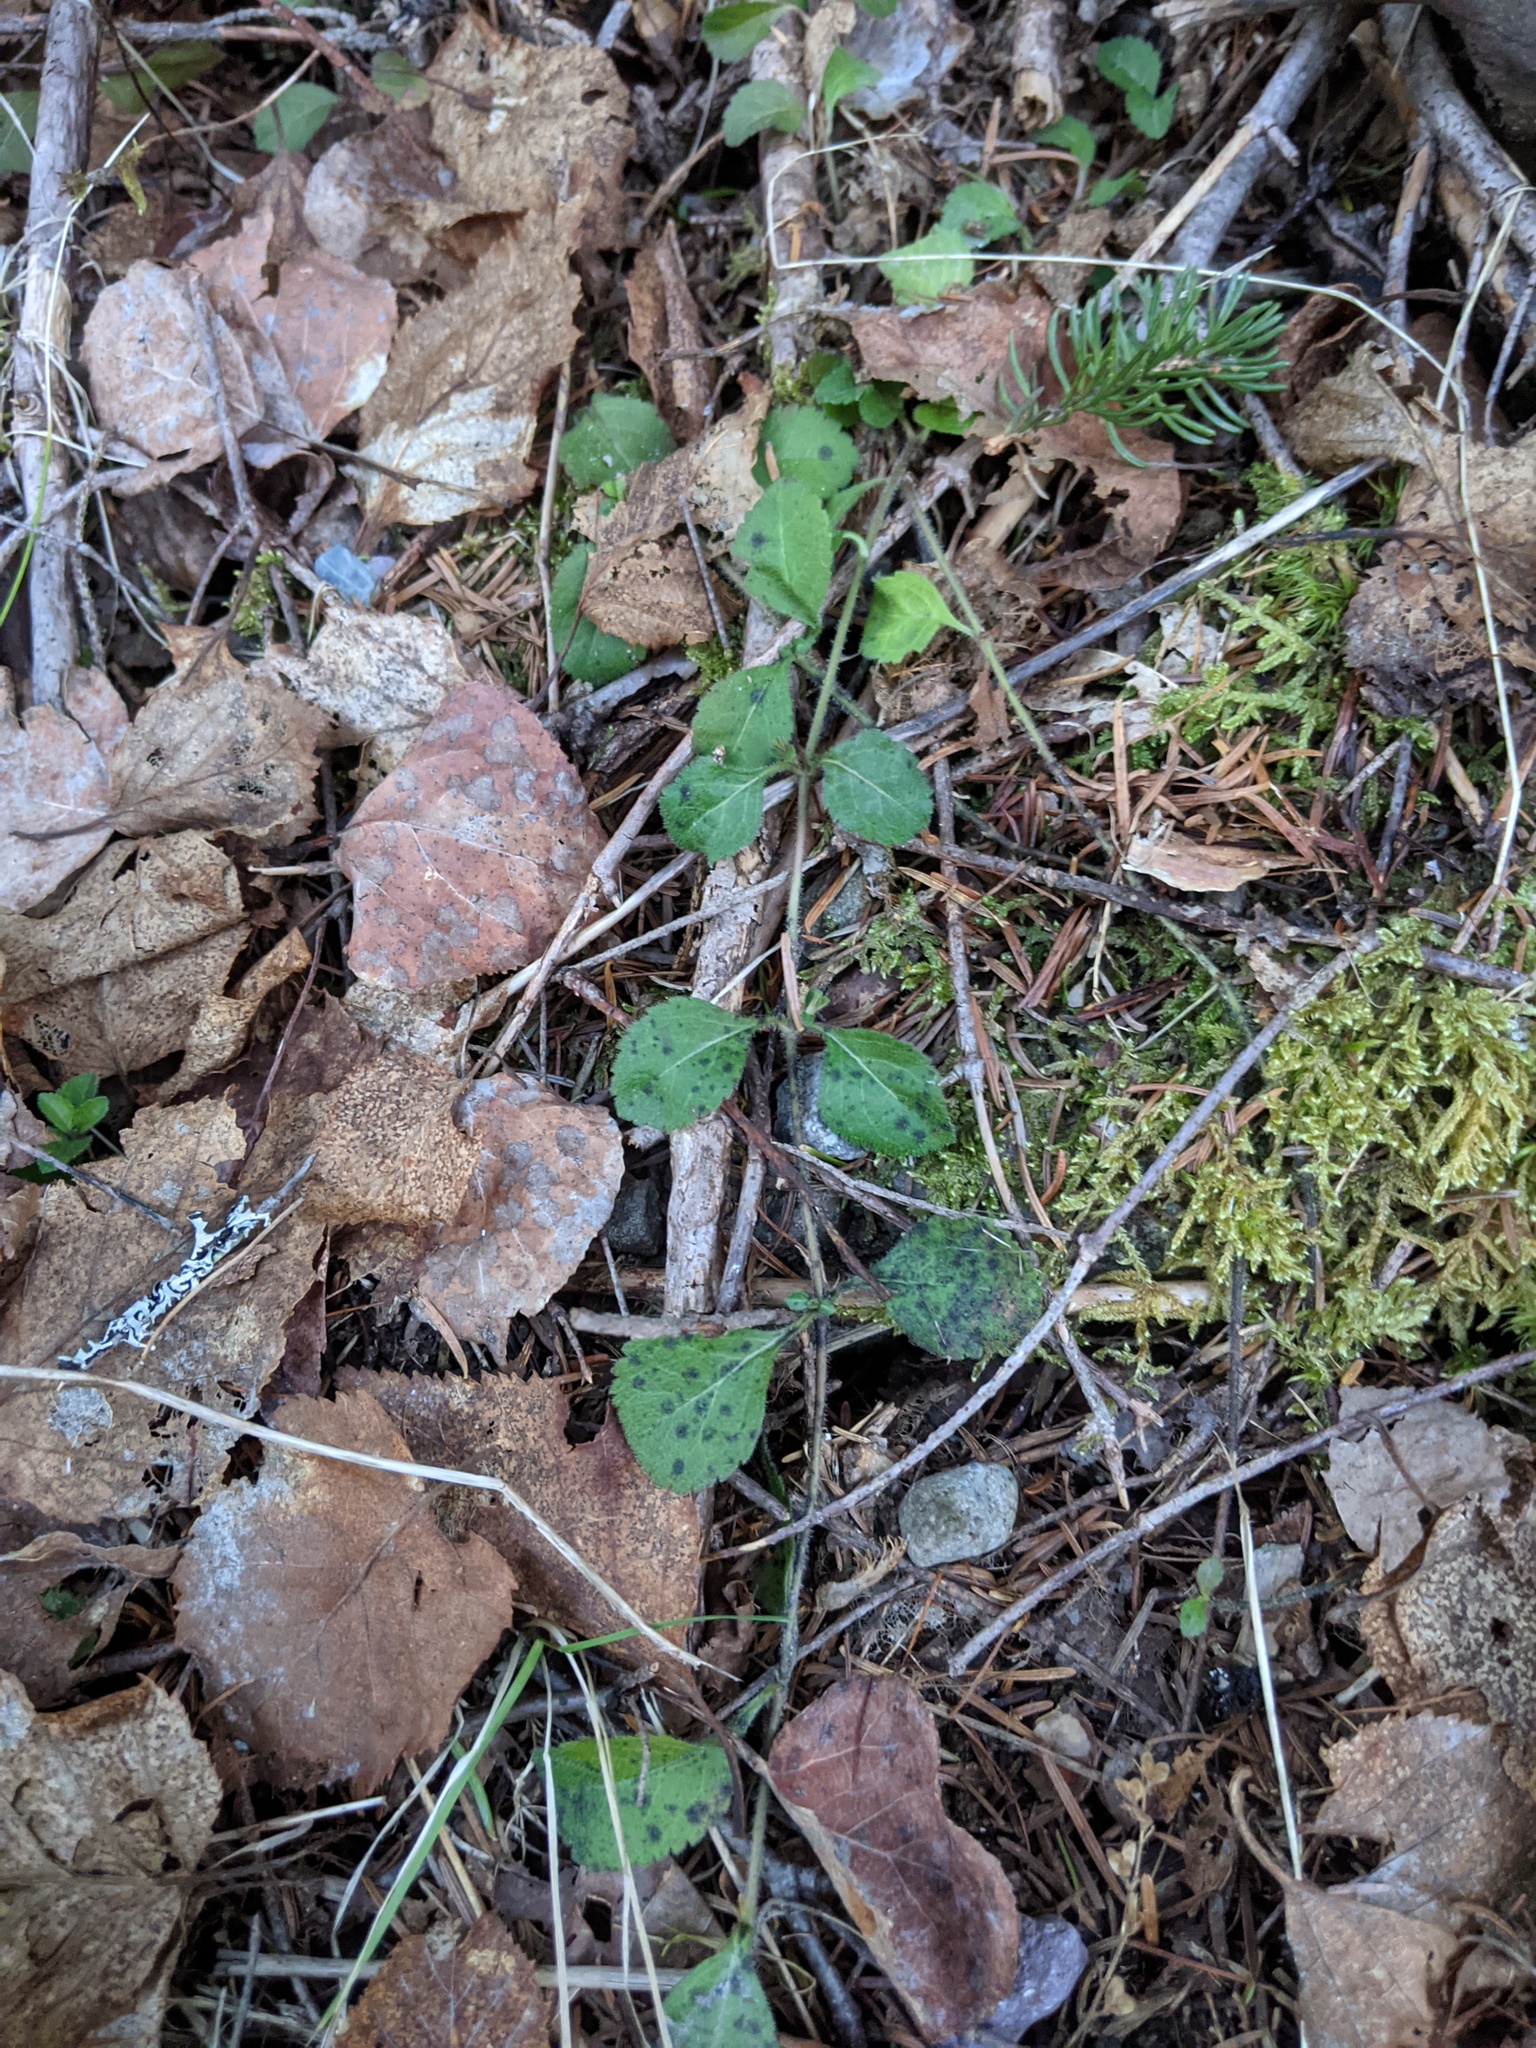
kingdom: Plantae
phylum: Tracheophyta
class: Magnoliopsida
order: Lamiales
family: Plantaginaceae
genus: Veronica
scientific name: Veronica officinalis
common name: Common speedwell
